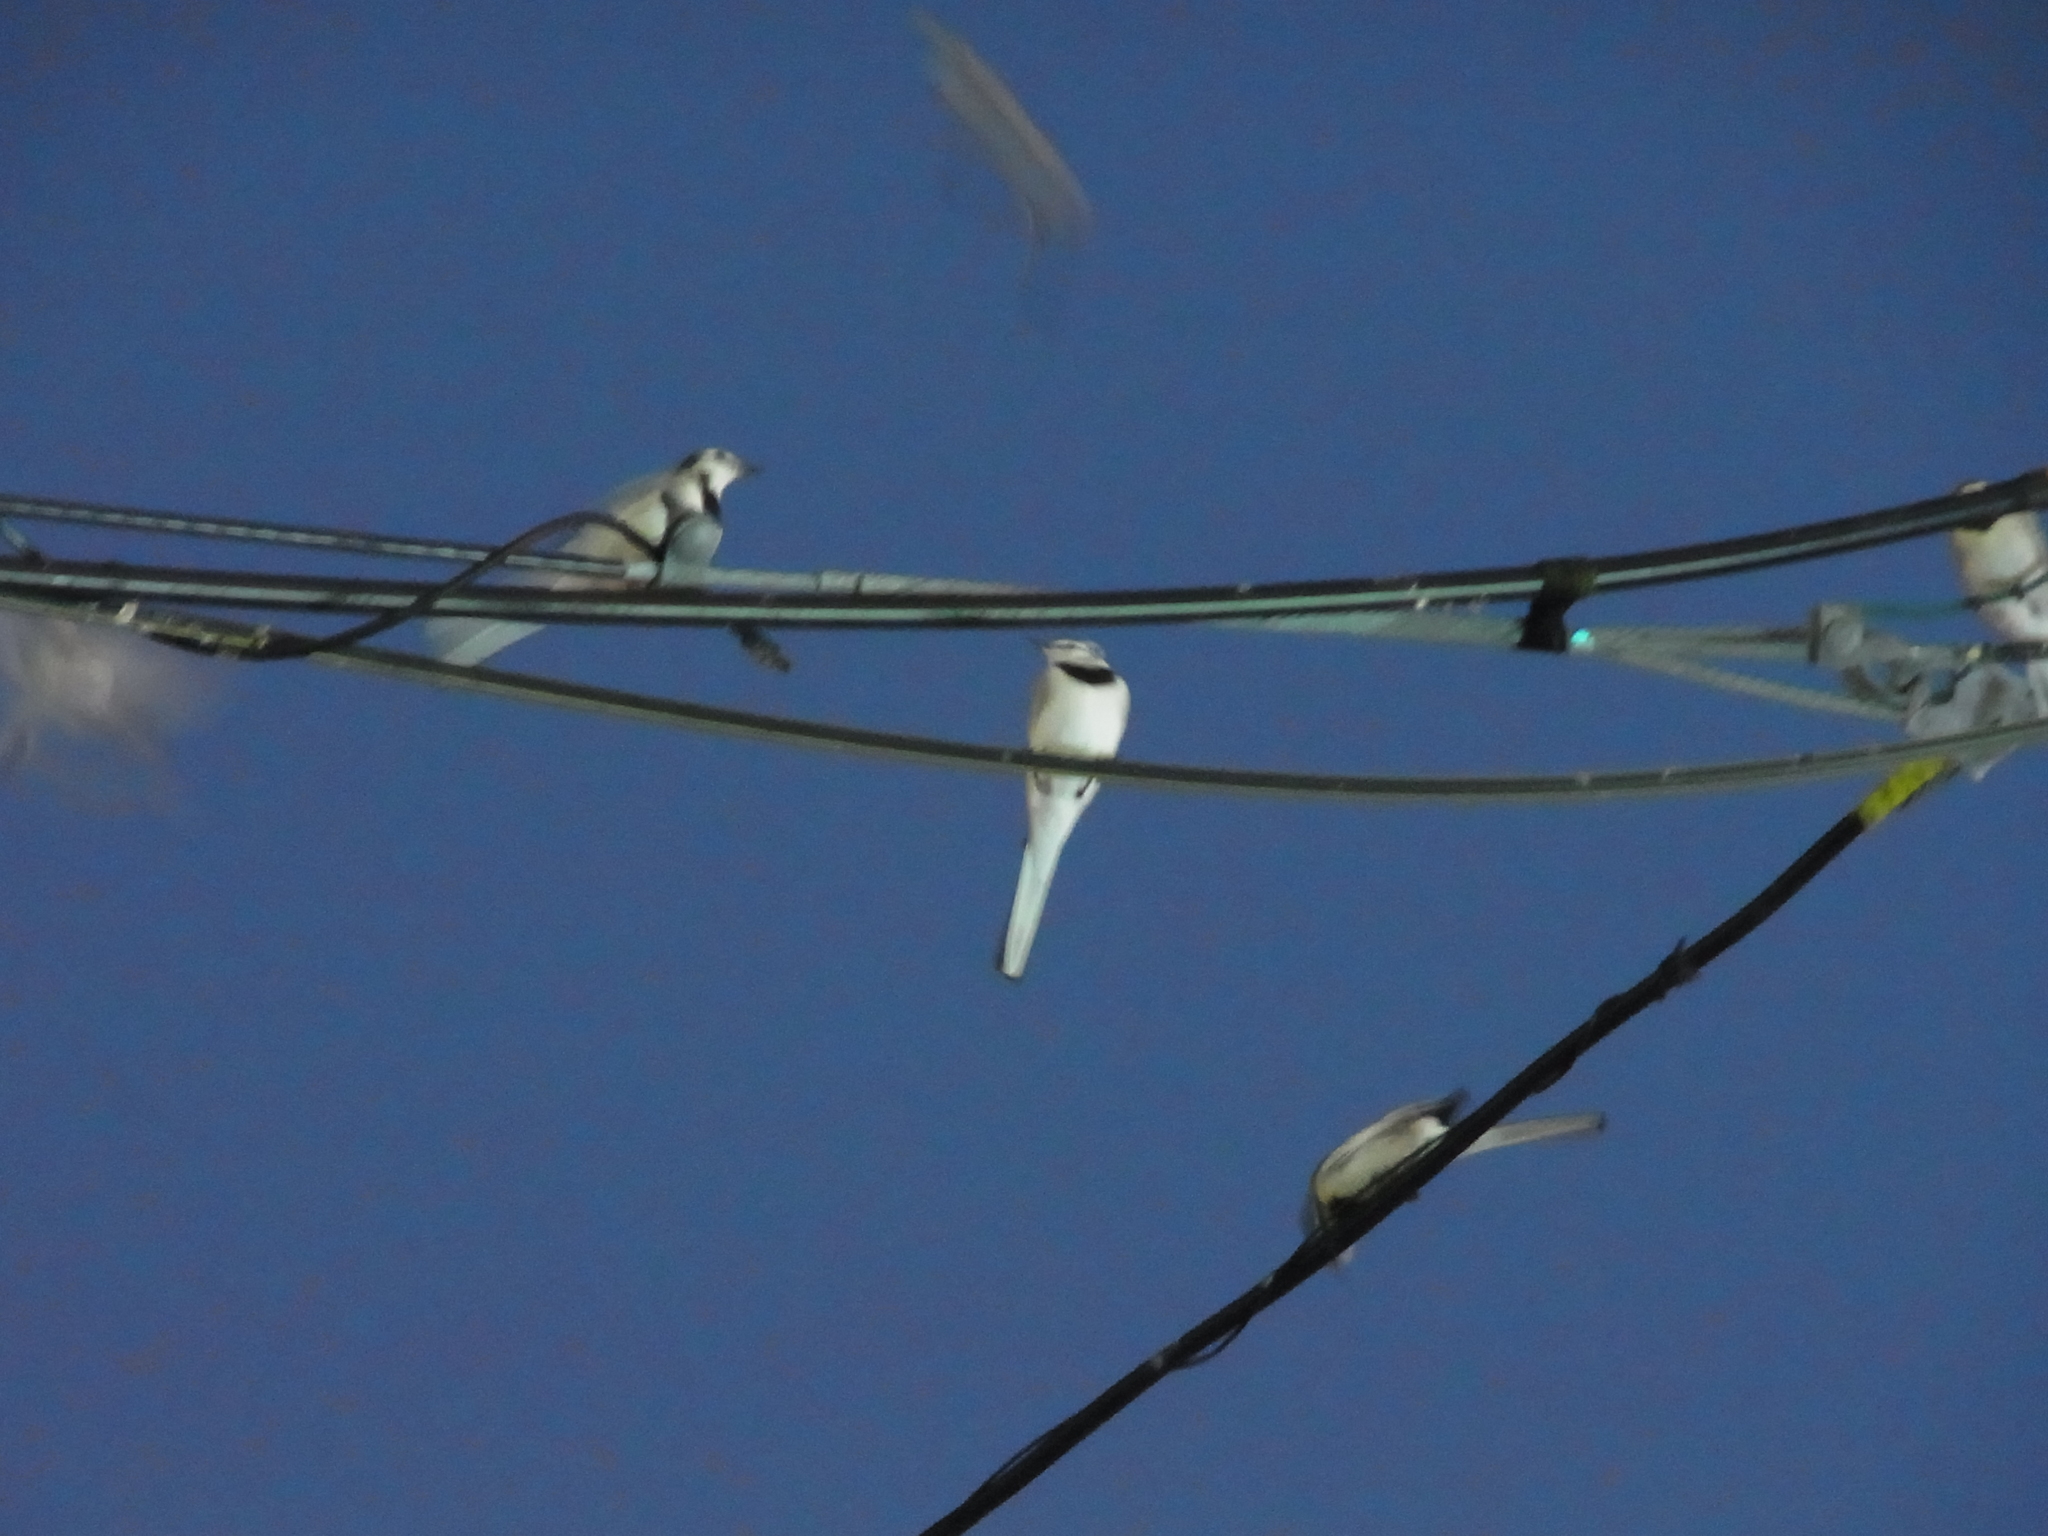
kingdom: Animalia
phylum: Chordata
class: Aves
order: Passeriformes
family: Motacillidae
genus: Motacilla
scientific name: Motacilla alba
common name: White wagtail
